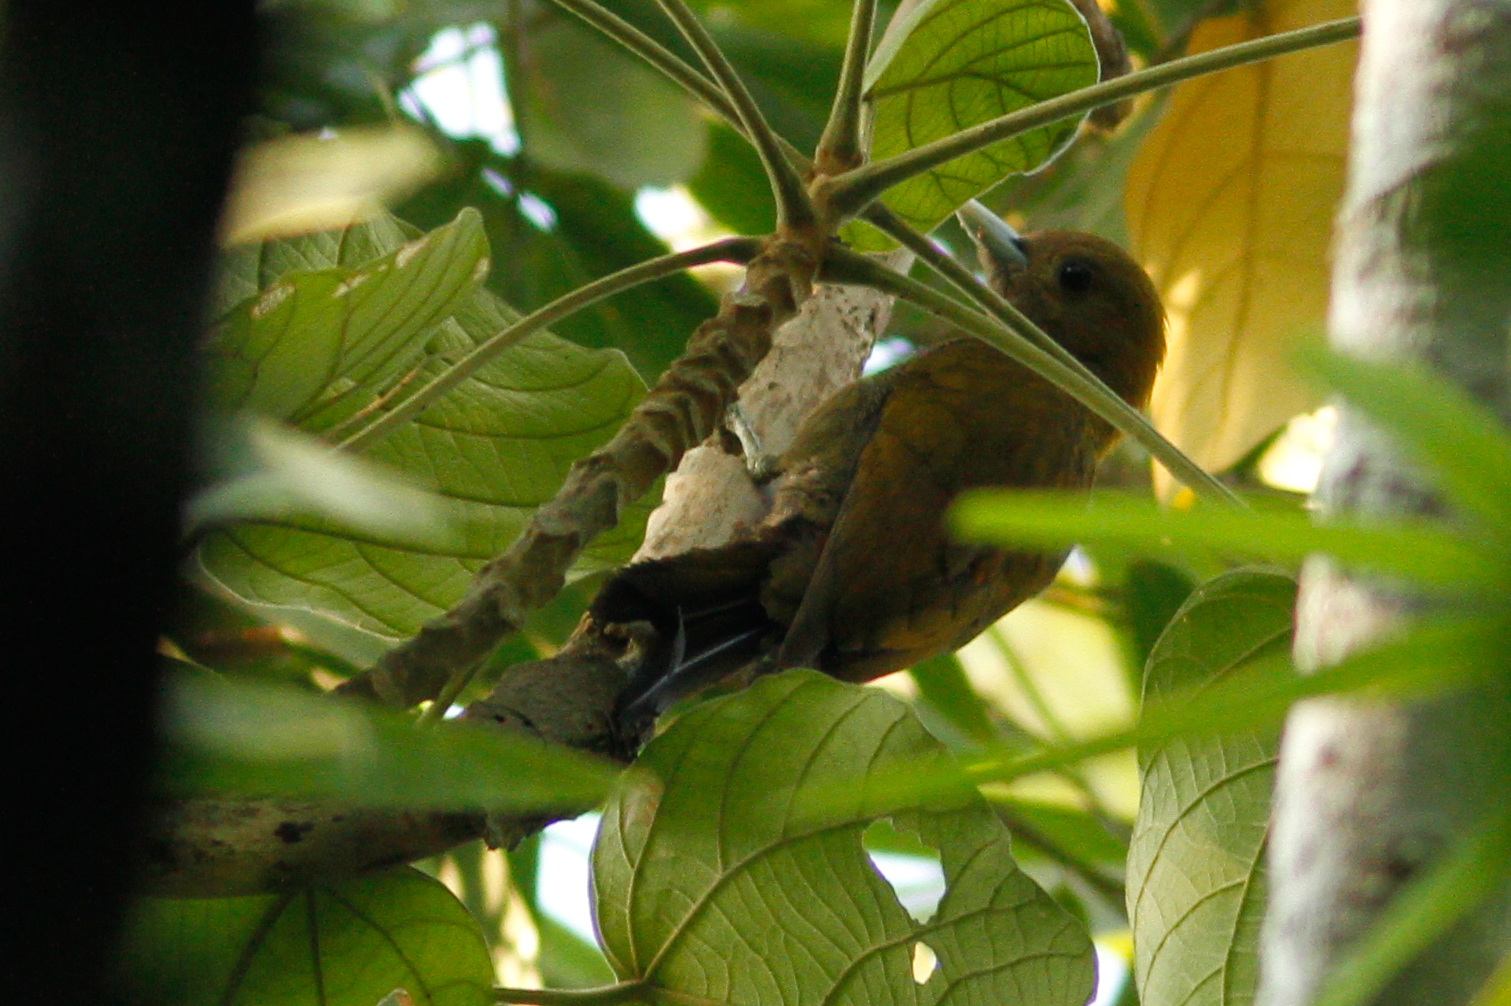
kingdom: Animalia
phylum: Chordata
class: Aves
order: Piciformes
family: Picidae
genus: Gecinulus
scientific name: Gecinulus viridis
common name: Bamboo woodpecker
